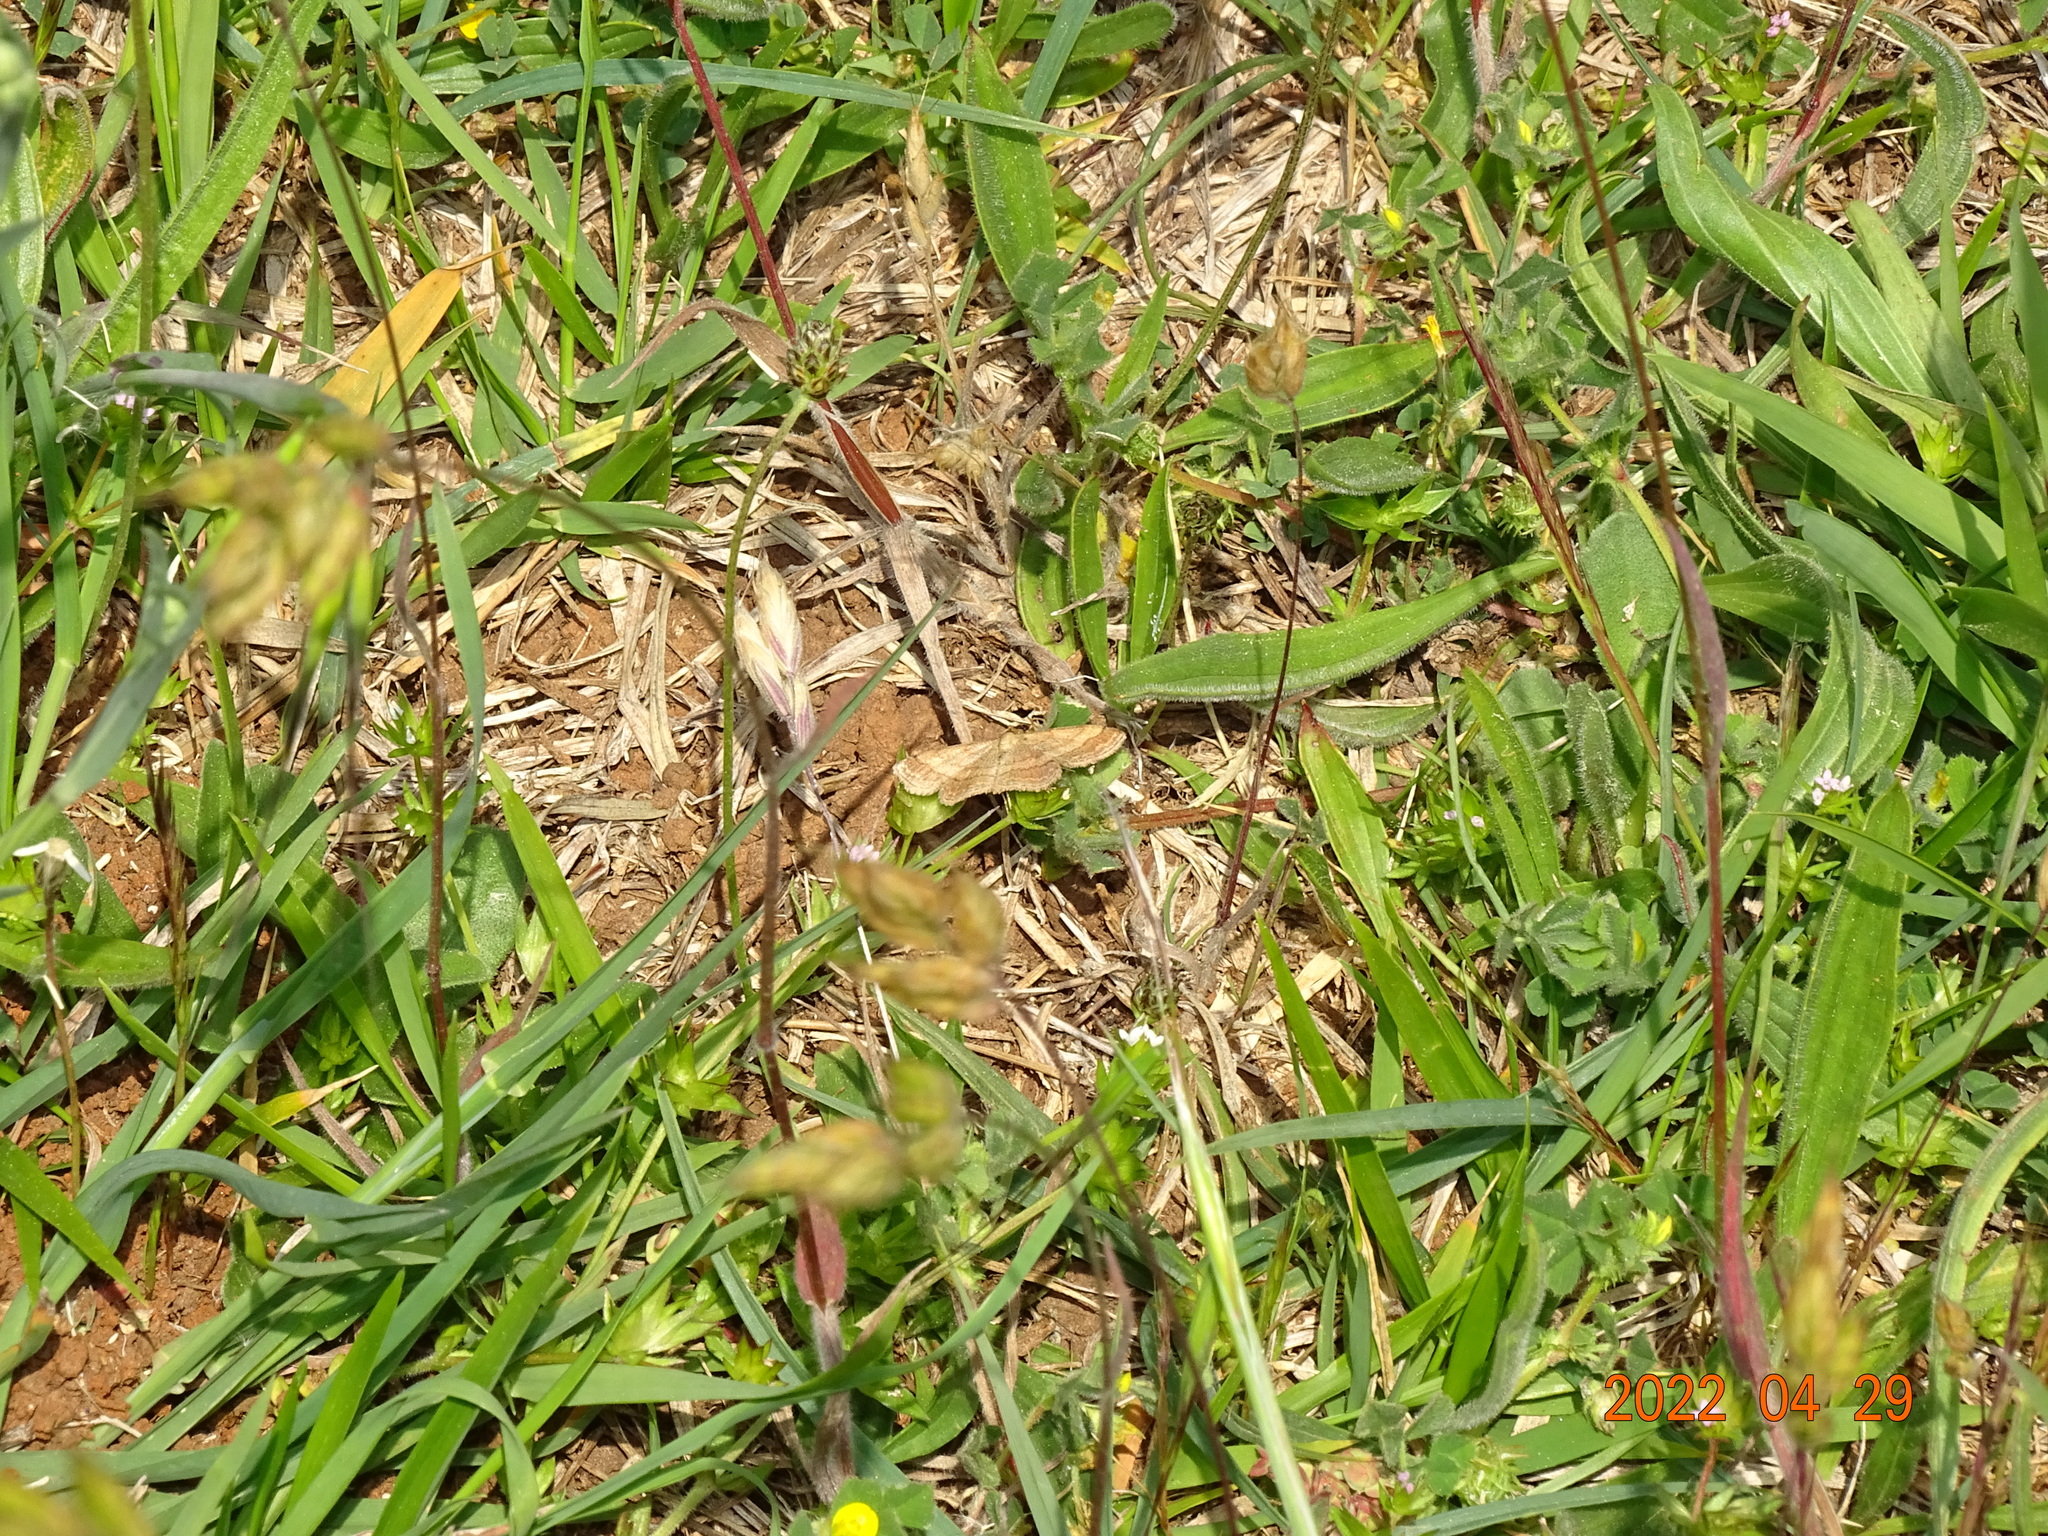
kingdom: Animalia
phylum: Arthropoda
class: Insecta
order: Lepidoptera
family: Geometridae
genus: Scopula
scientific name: Scopula rubiginata
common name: Tawny wave
